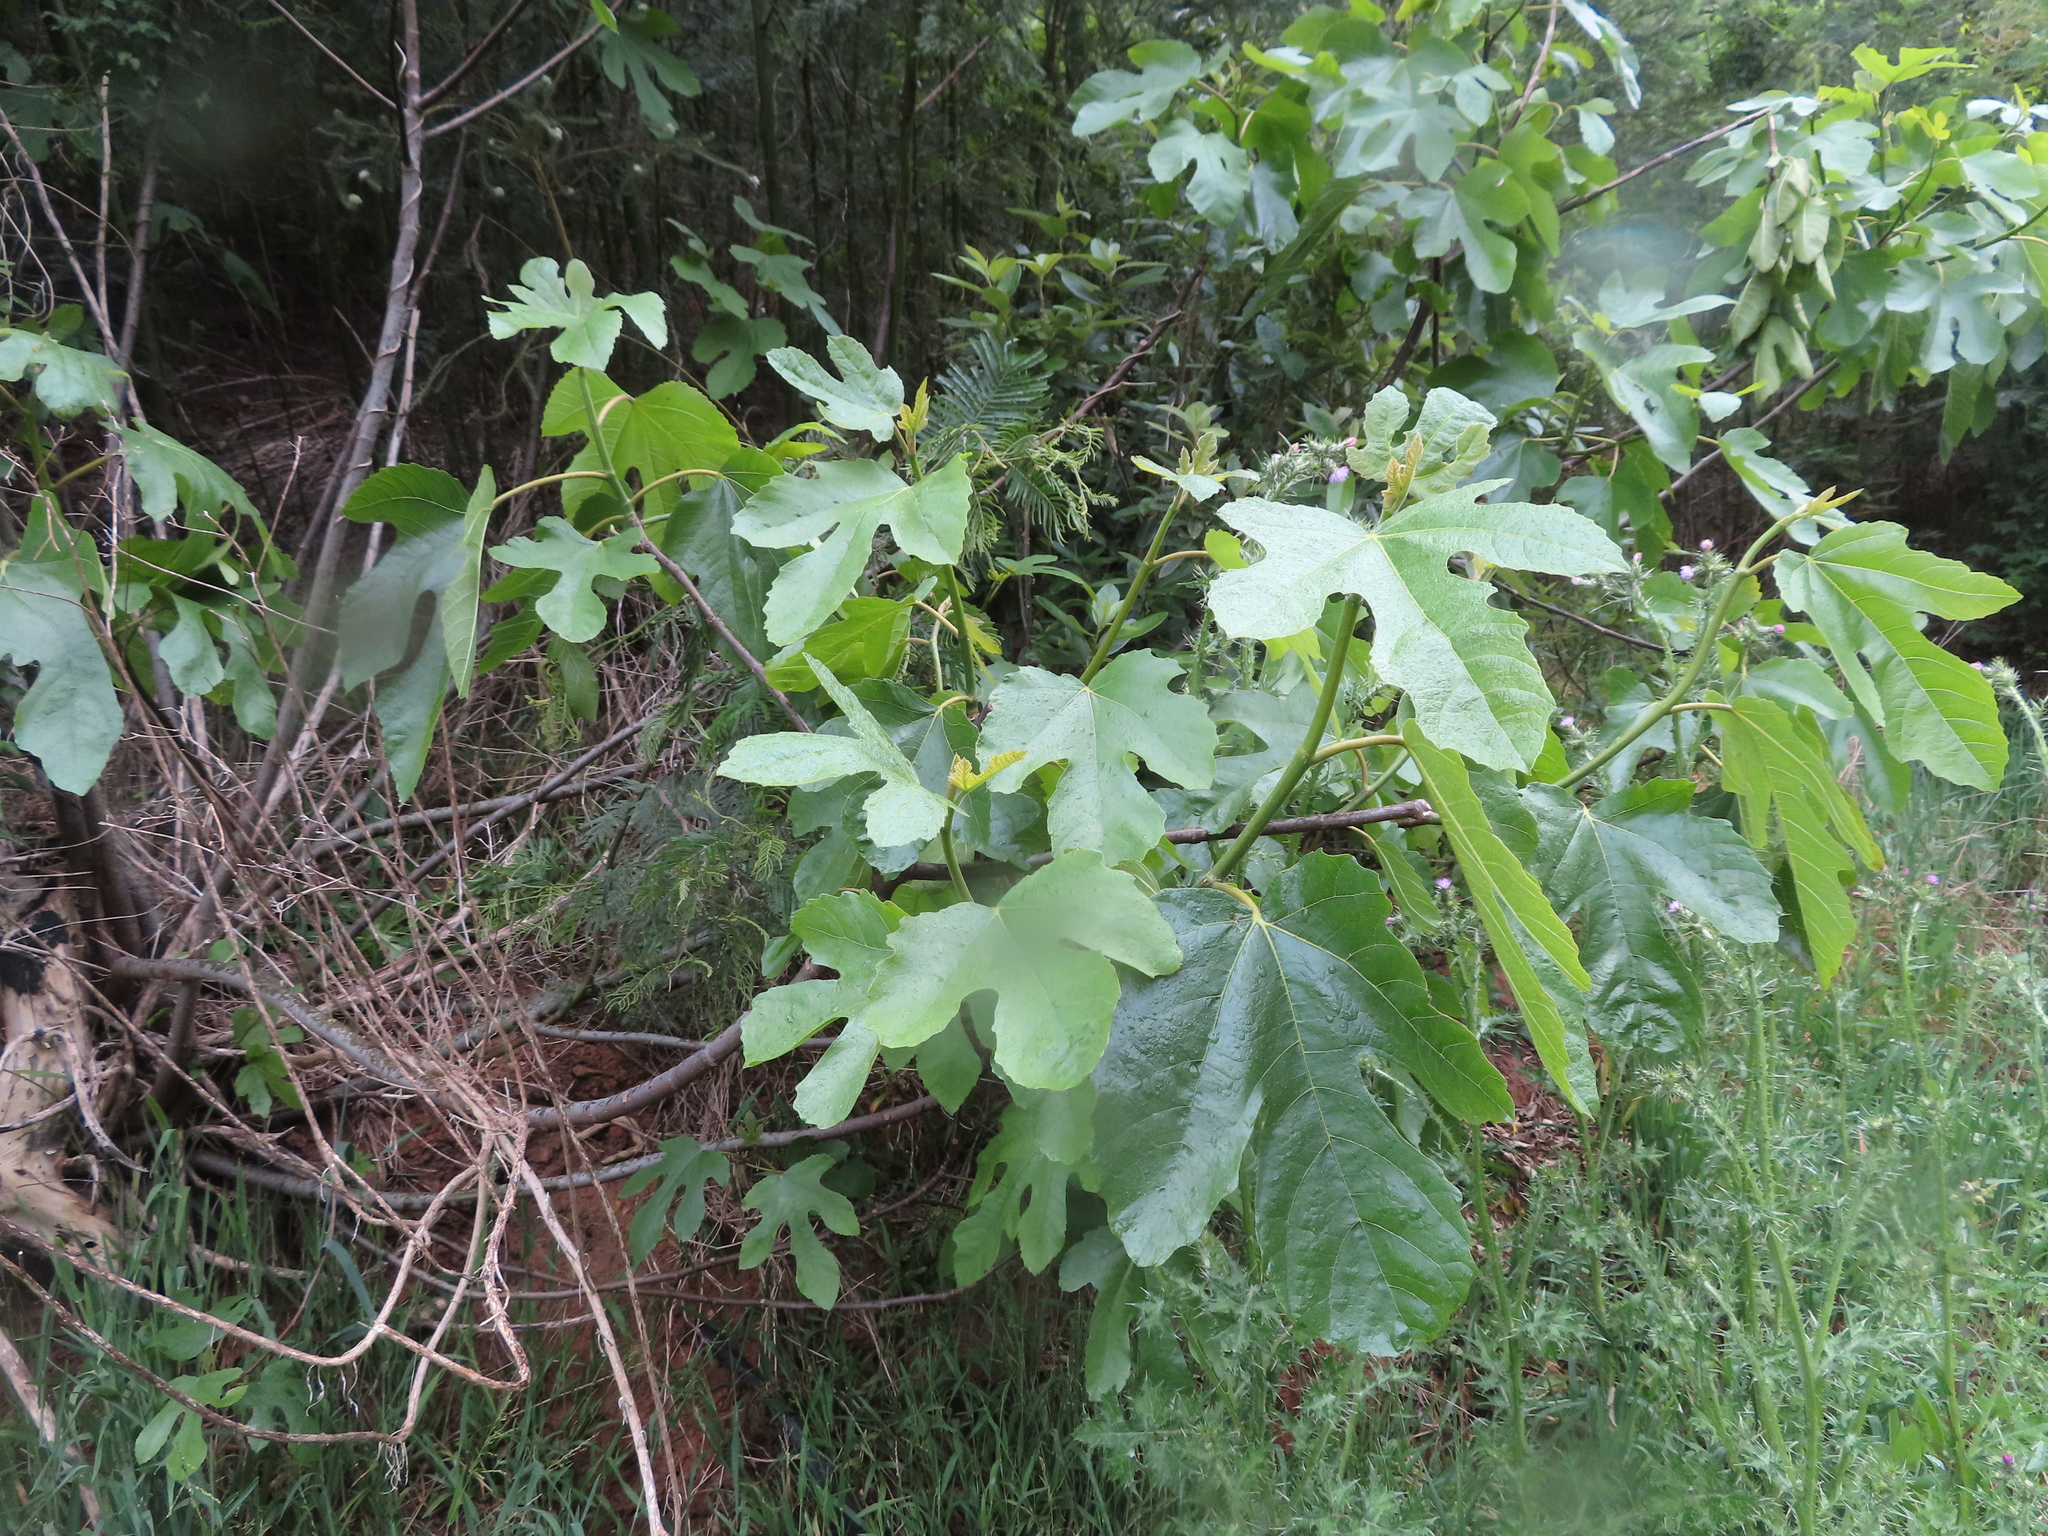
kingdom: Plantae
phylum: Tracheophyta
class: Magnoliopsida
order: Rosales
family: Moraceae
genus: Ficus
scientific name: Ficus carica
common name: Fig
